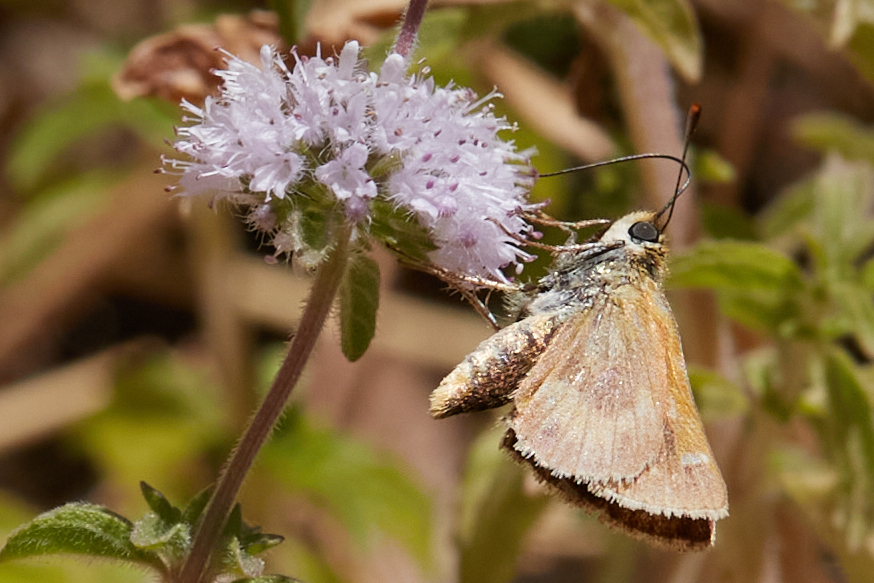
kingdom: Animalia
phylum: Arthropoda
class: Insecta
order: Lepidoptera
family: Hesperiidae
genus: Ochlodes
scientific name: Ochlodes agricola
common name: Rural skipper
